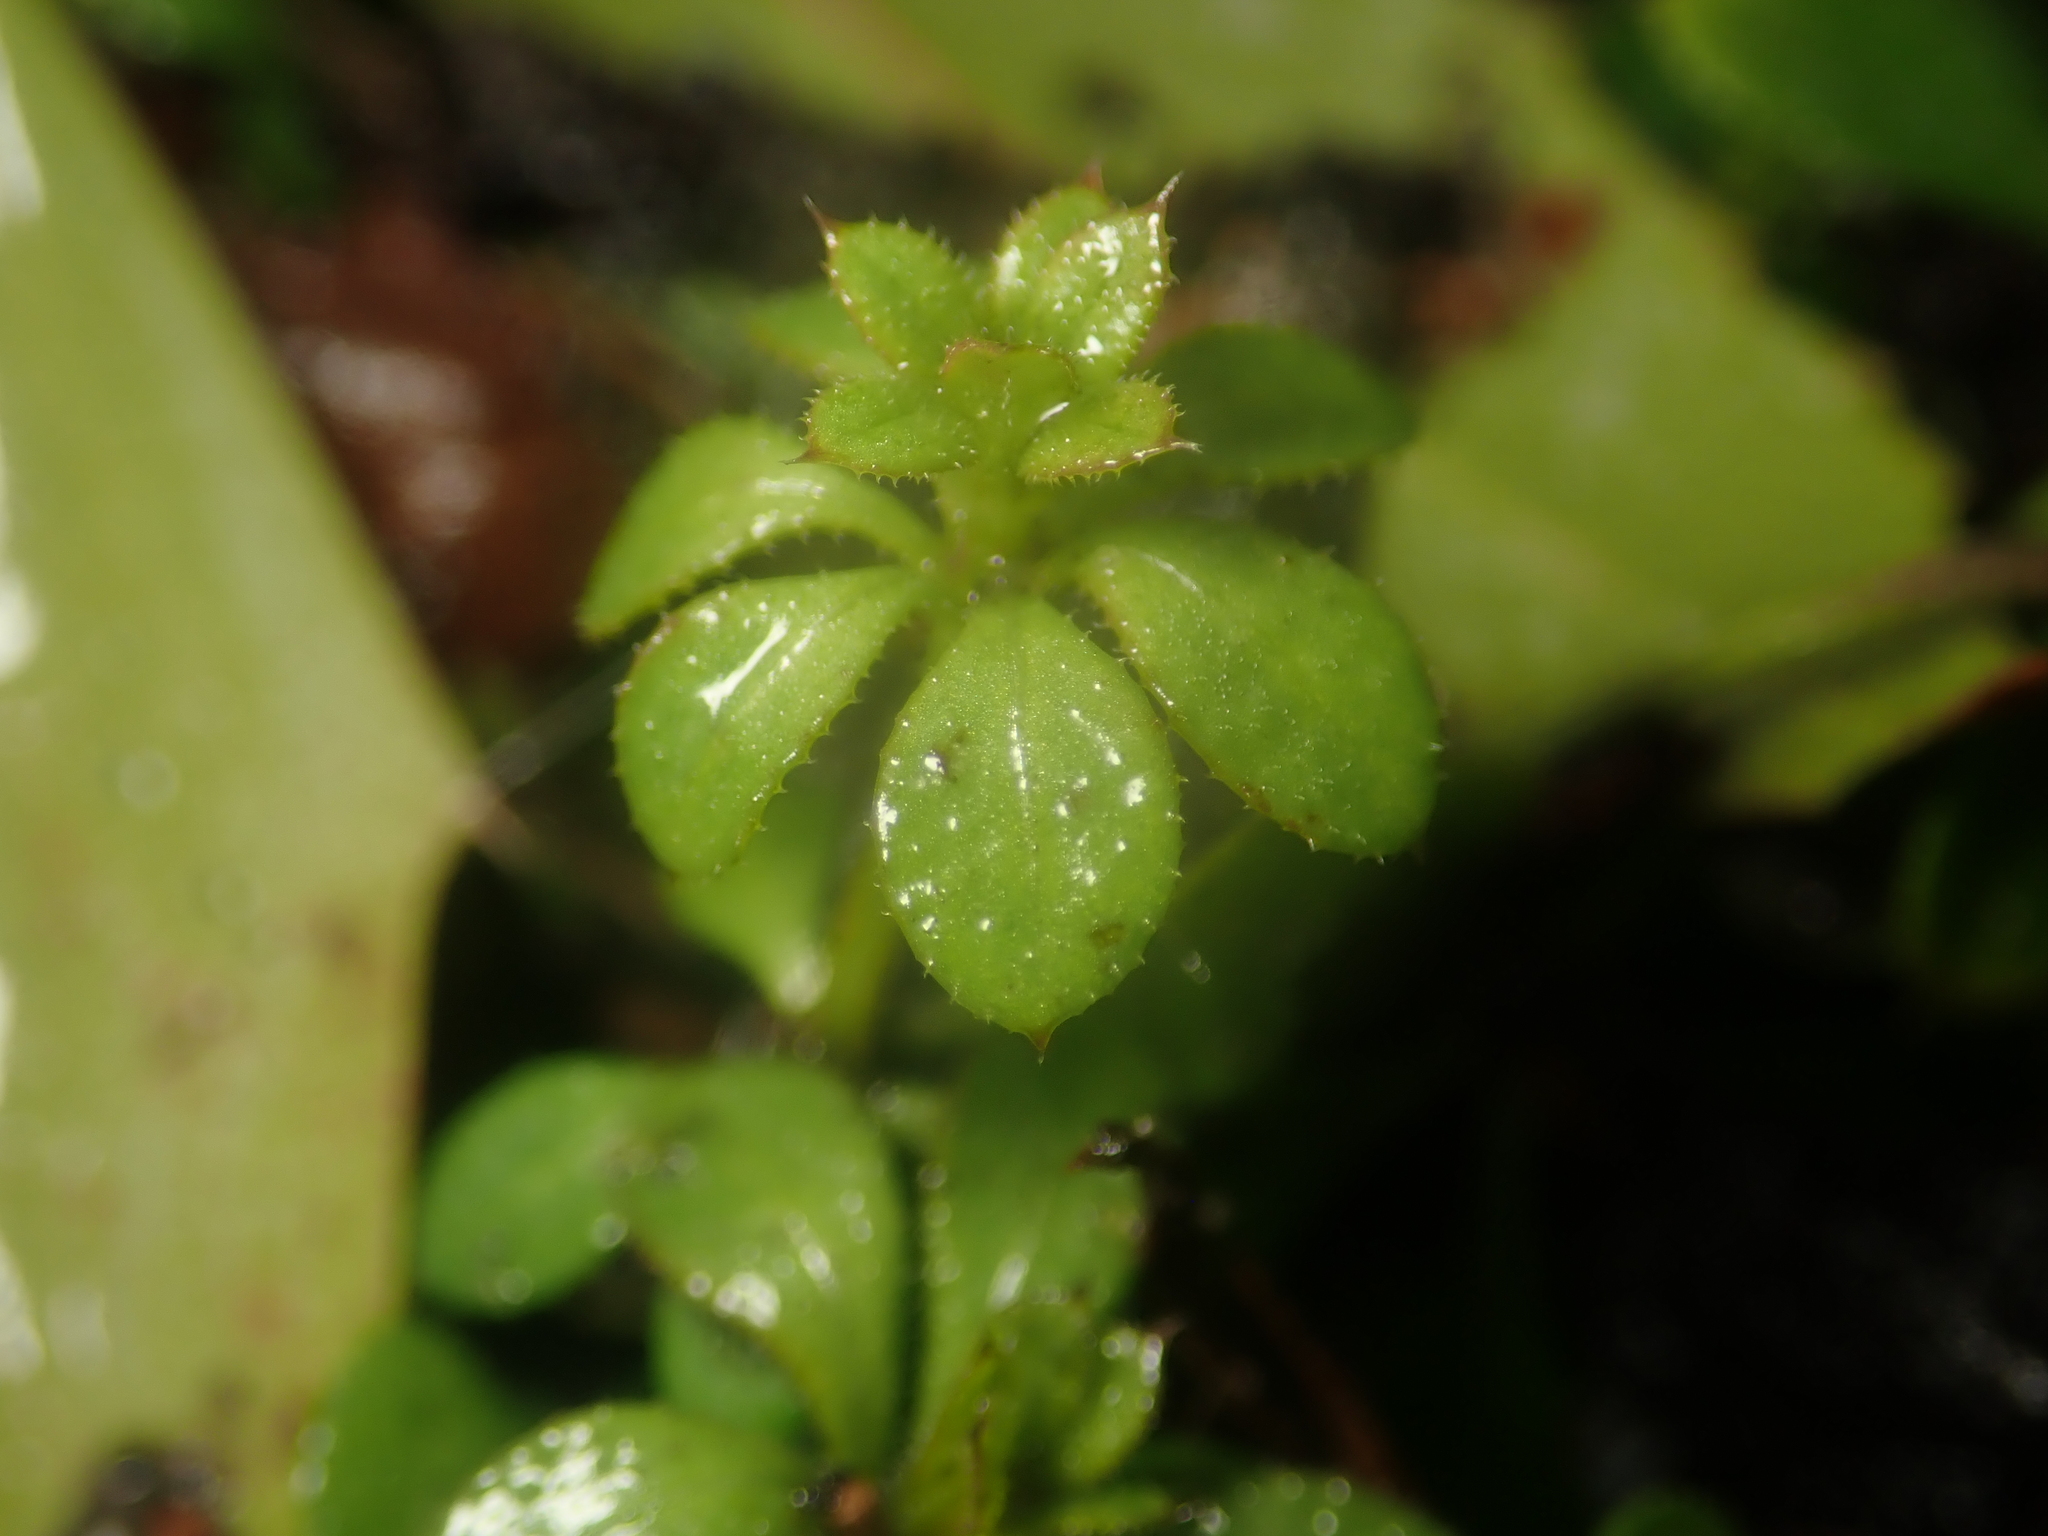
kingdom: Plantae
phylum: Tracheophyta
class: Magnoliopsida
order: Gentianales
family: Rubiaceae
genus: Galium
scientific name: Galium aparine
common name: Cleavers
